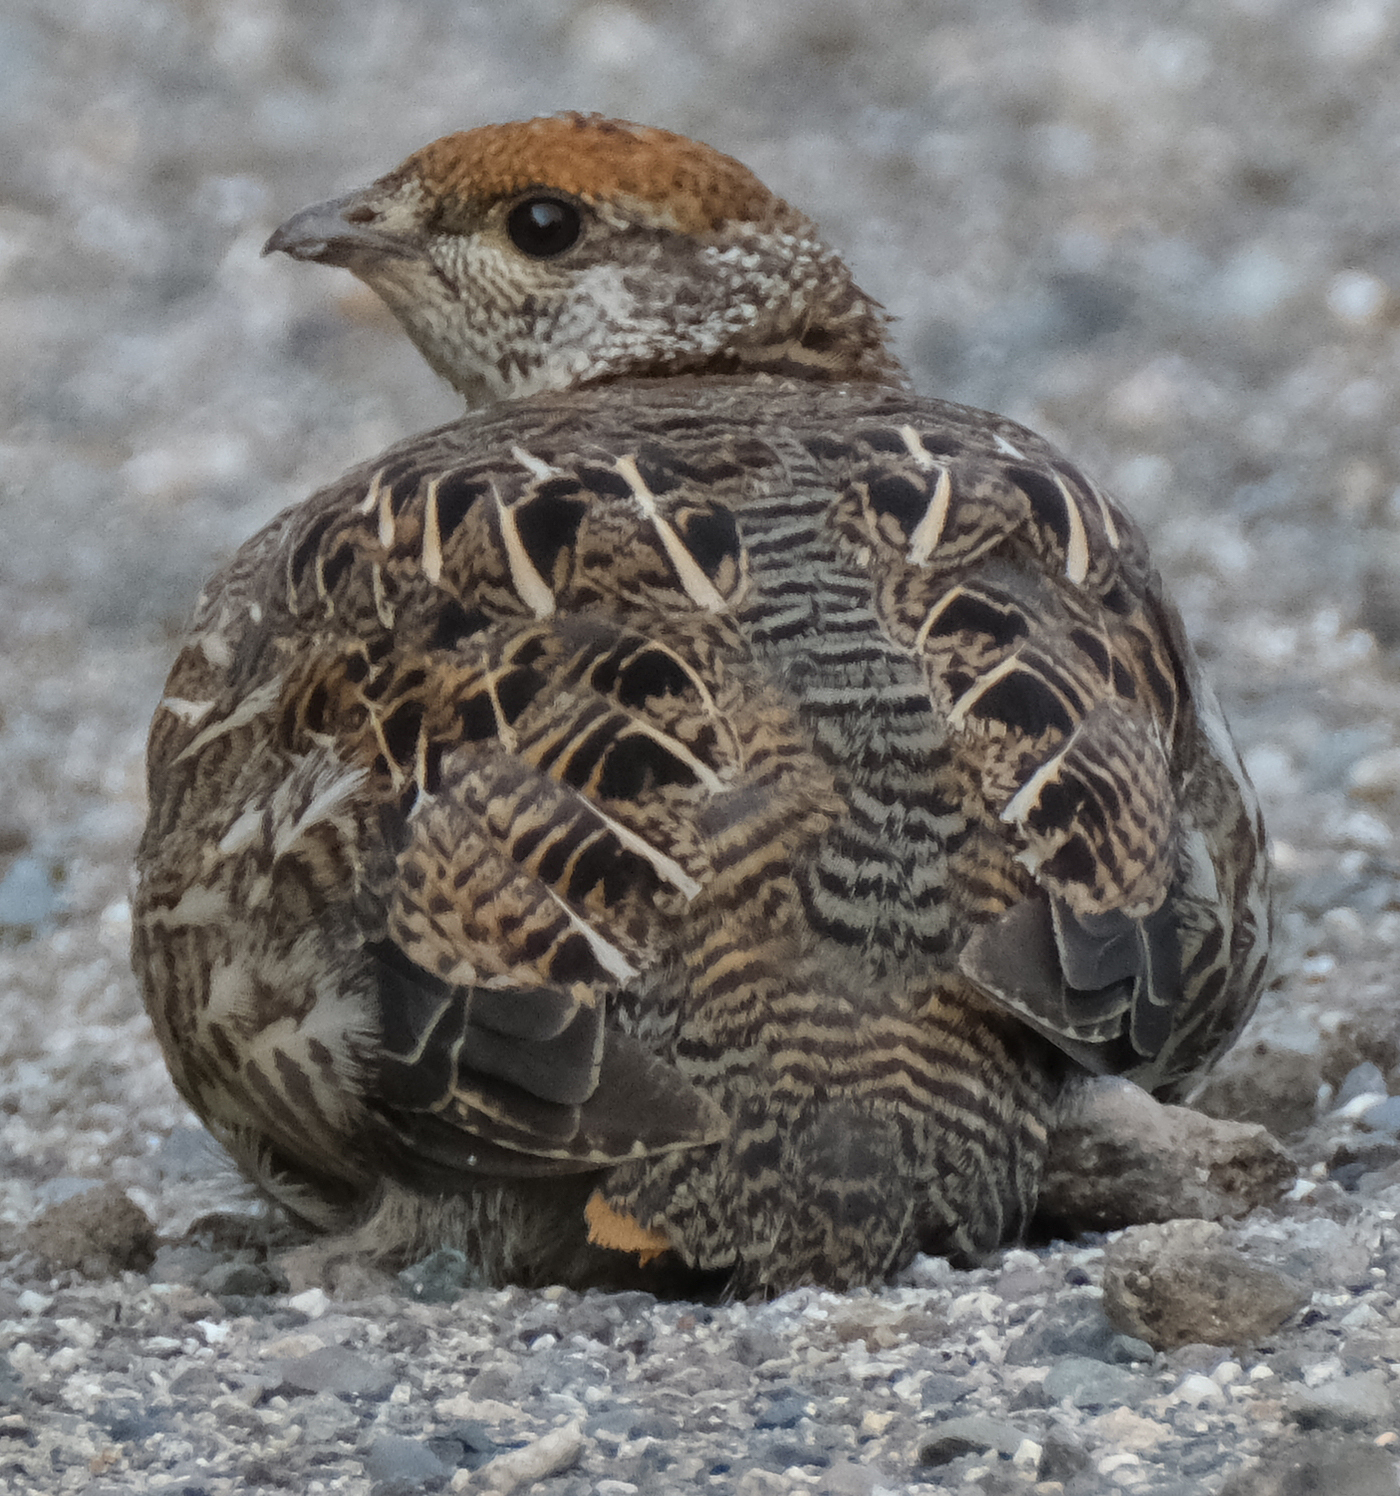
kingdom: Animalia
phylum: Chordata
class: Aves
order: Galliformes
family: Phasianidae
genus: Canachites
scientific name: Canachites canadensis
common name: Spruce grouse
